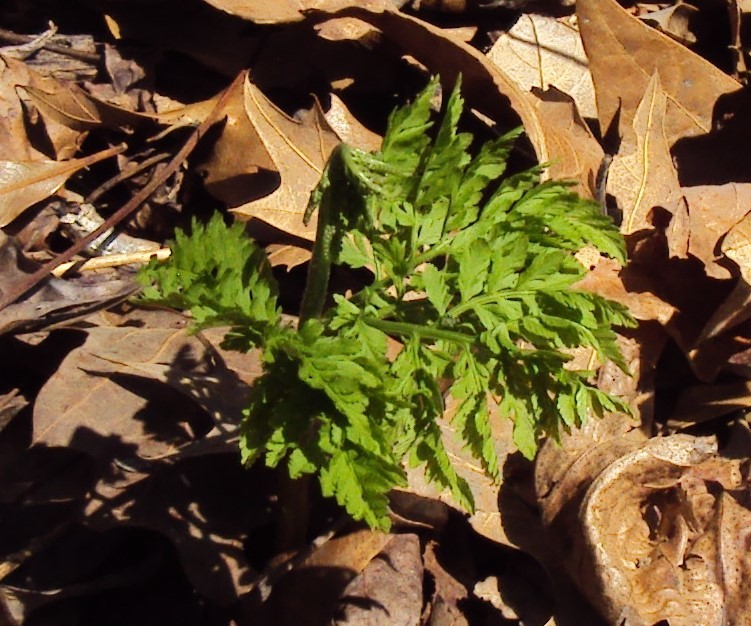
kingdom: Plantae
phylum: Tracheophyta
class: Polypodiopsida
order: Ophioglossales
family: Ophioglossaceae
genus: Botrypus
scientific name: Botrypus virginianus
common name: Common grapefern
